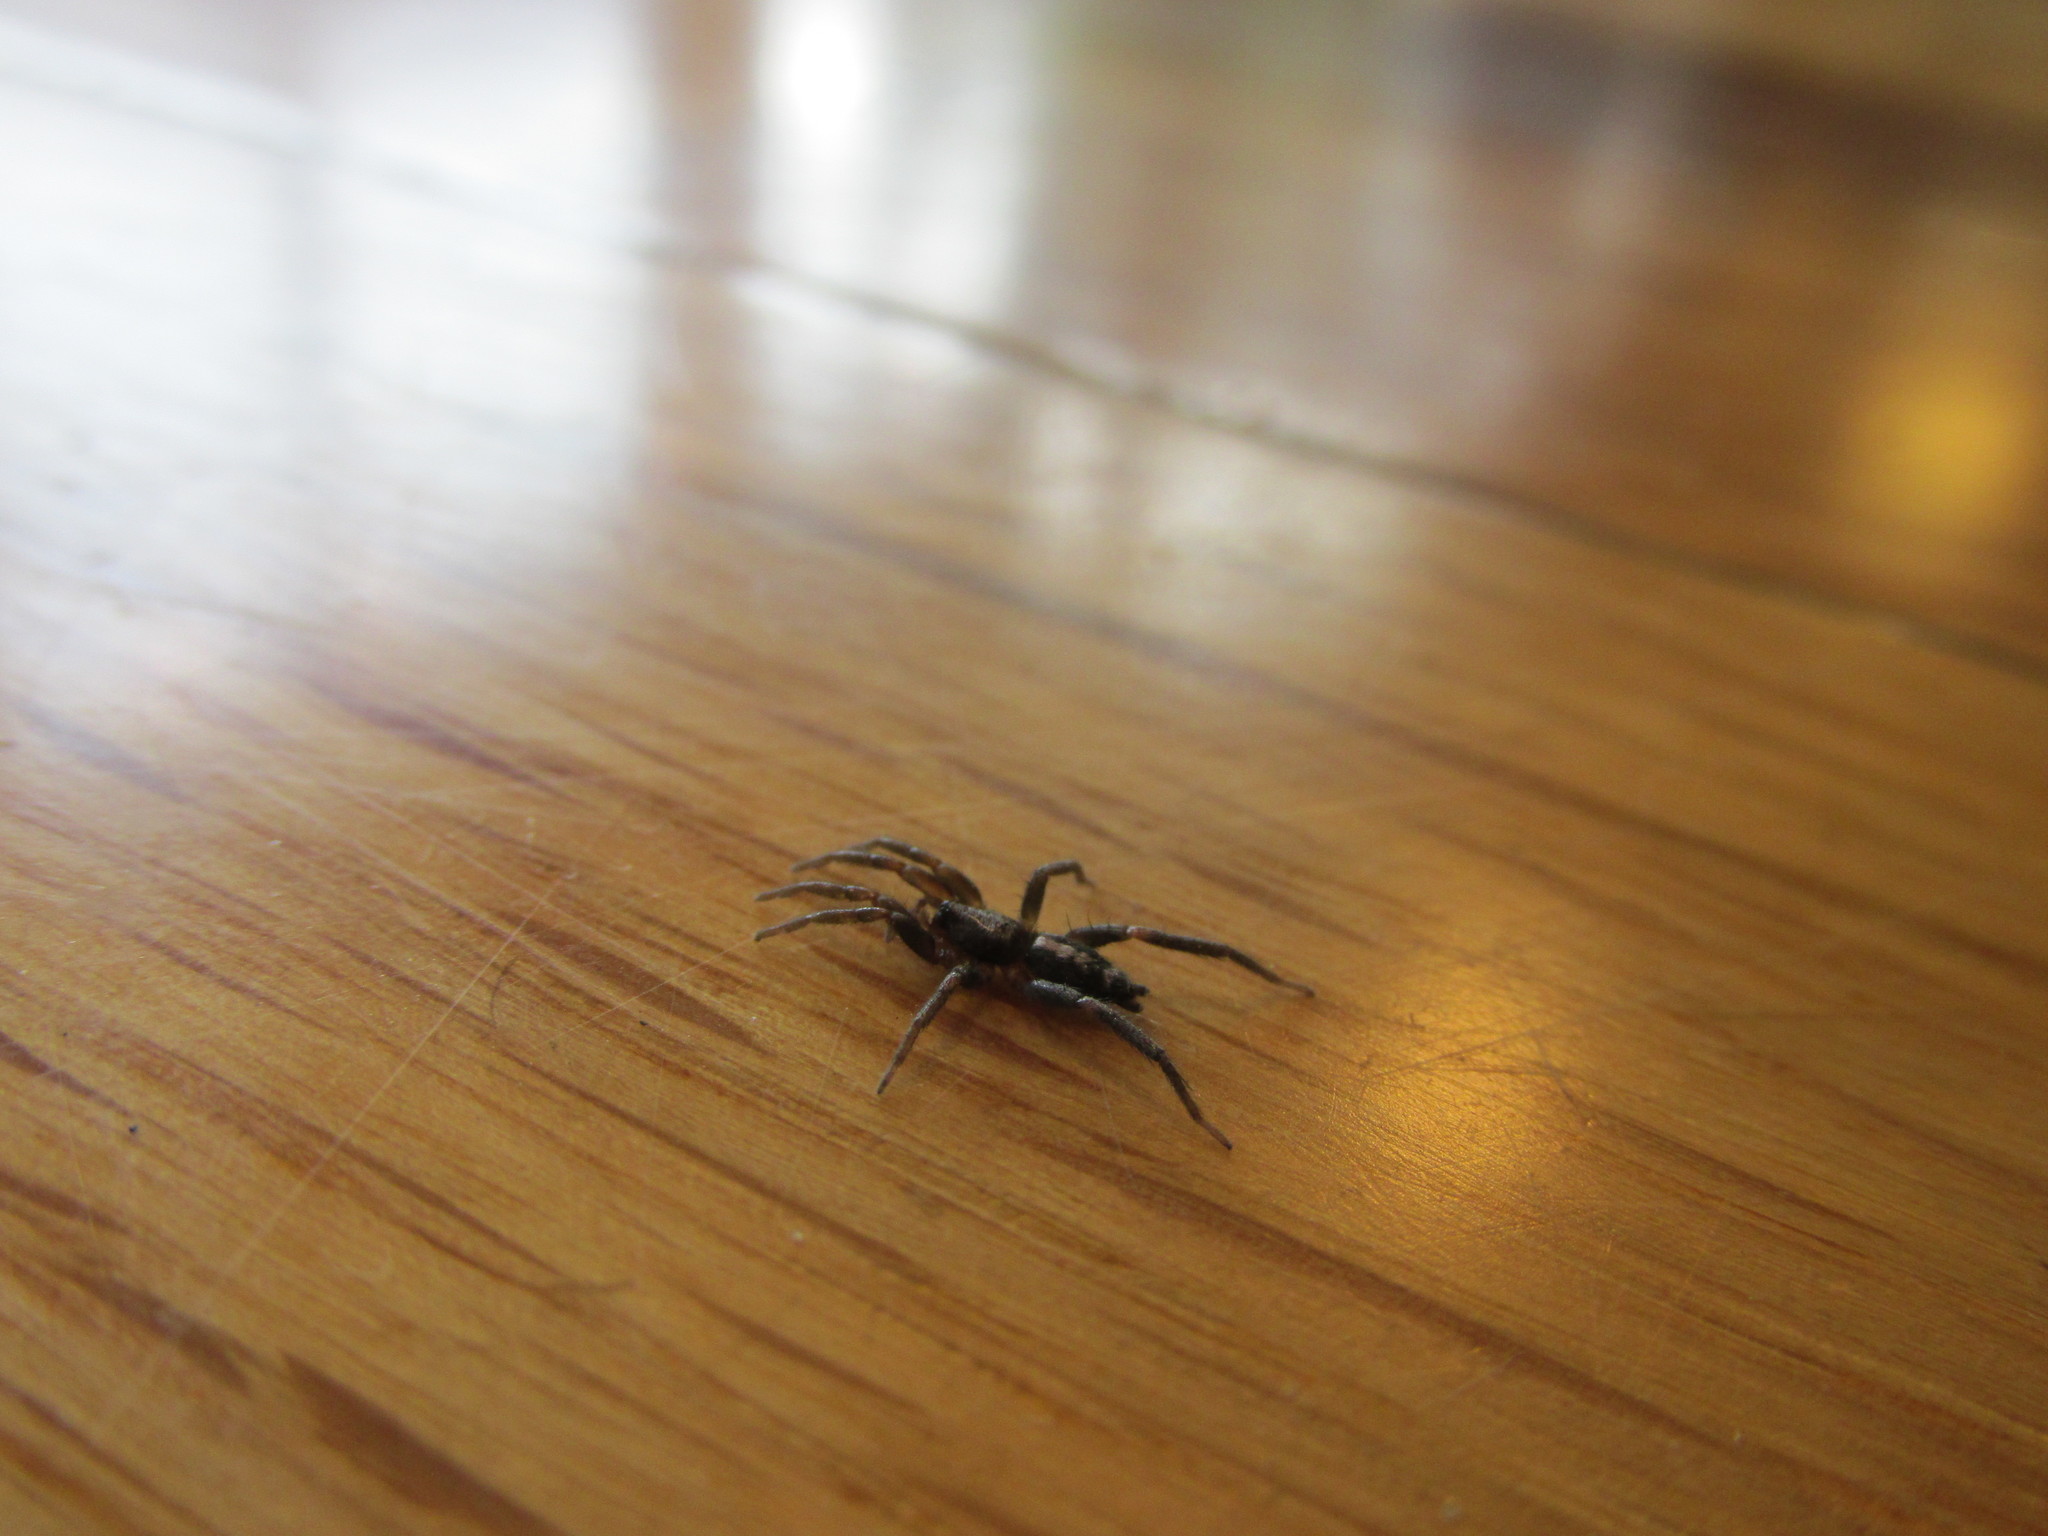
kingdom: Animalia
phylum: Arthropoda
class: Arachnida
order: Araneae
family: Gnaphosidae
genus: Herpyllus
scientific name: Herpyllus ecclesiasticus
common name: Eastern parson spider
